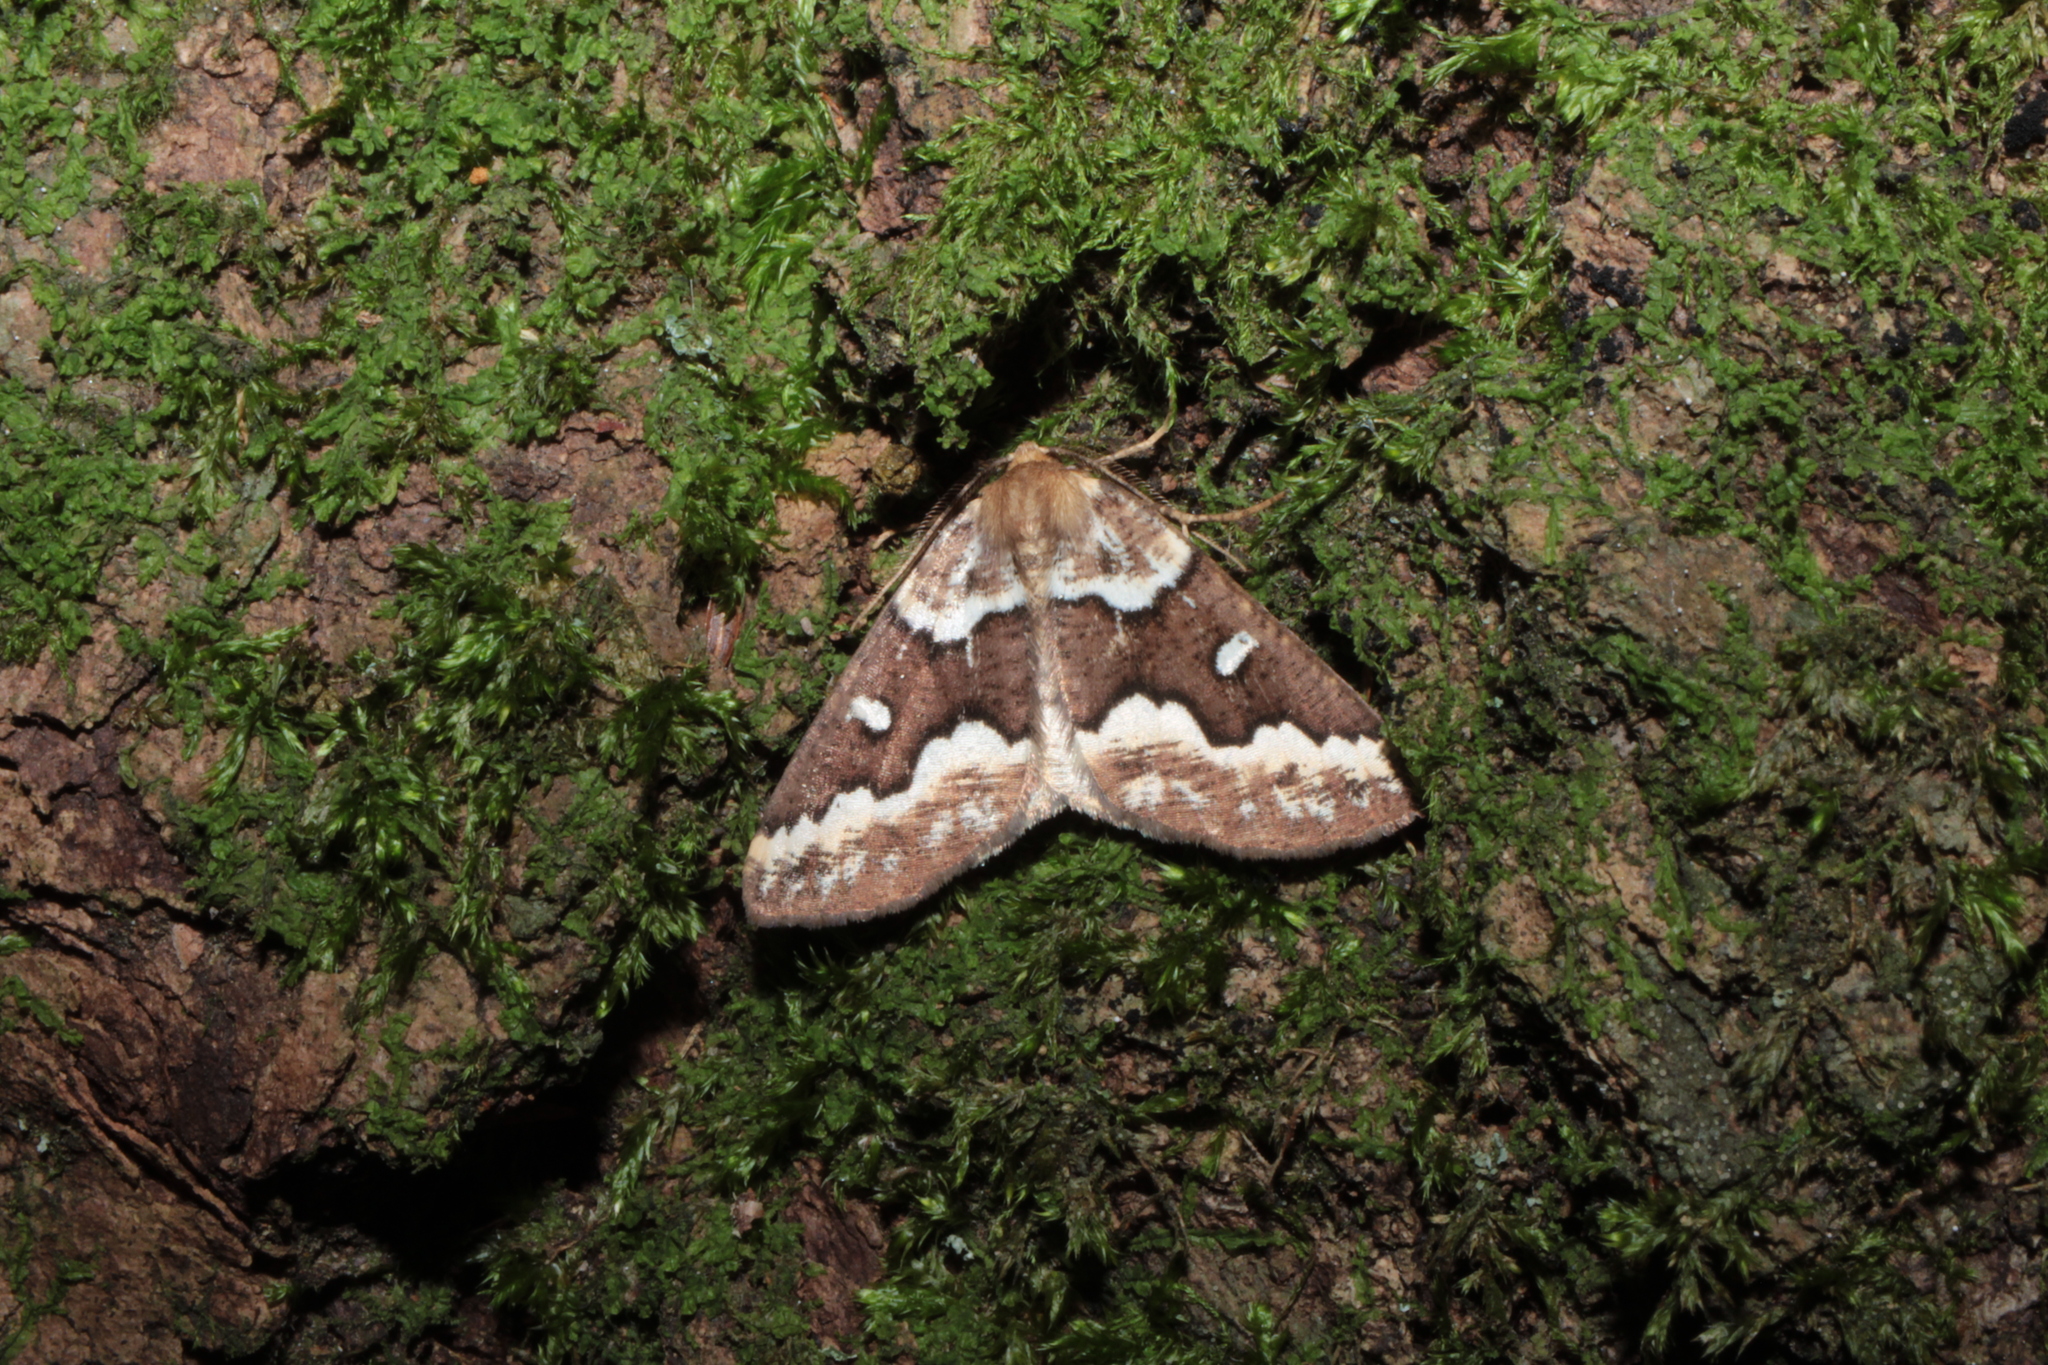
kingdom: Animalia
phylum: Arthropoda
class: Insecta
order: Lepidoptera
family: Geometridae
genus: Caripeta
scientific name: Caripeta divisata
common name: Gray spruce looper
